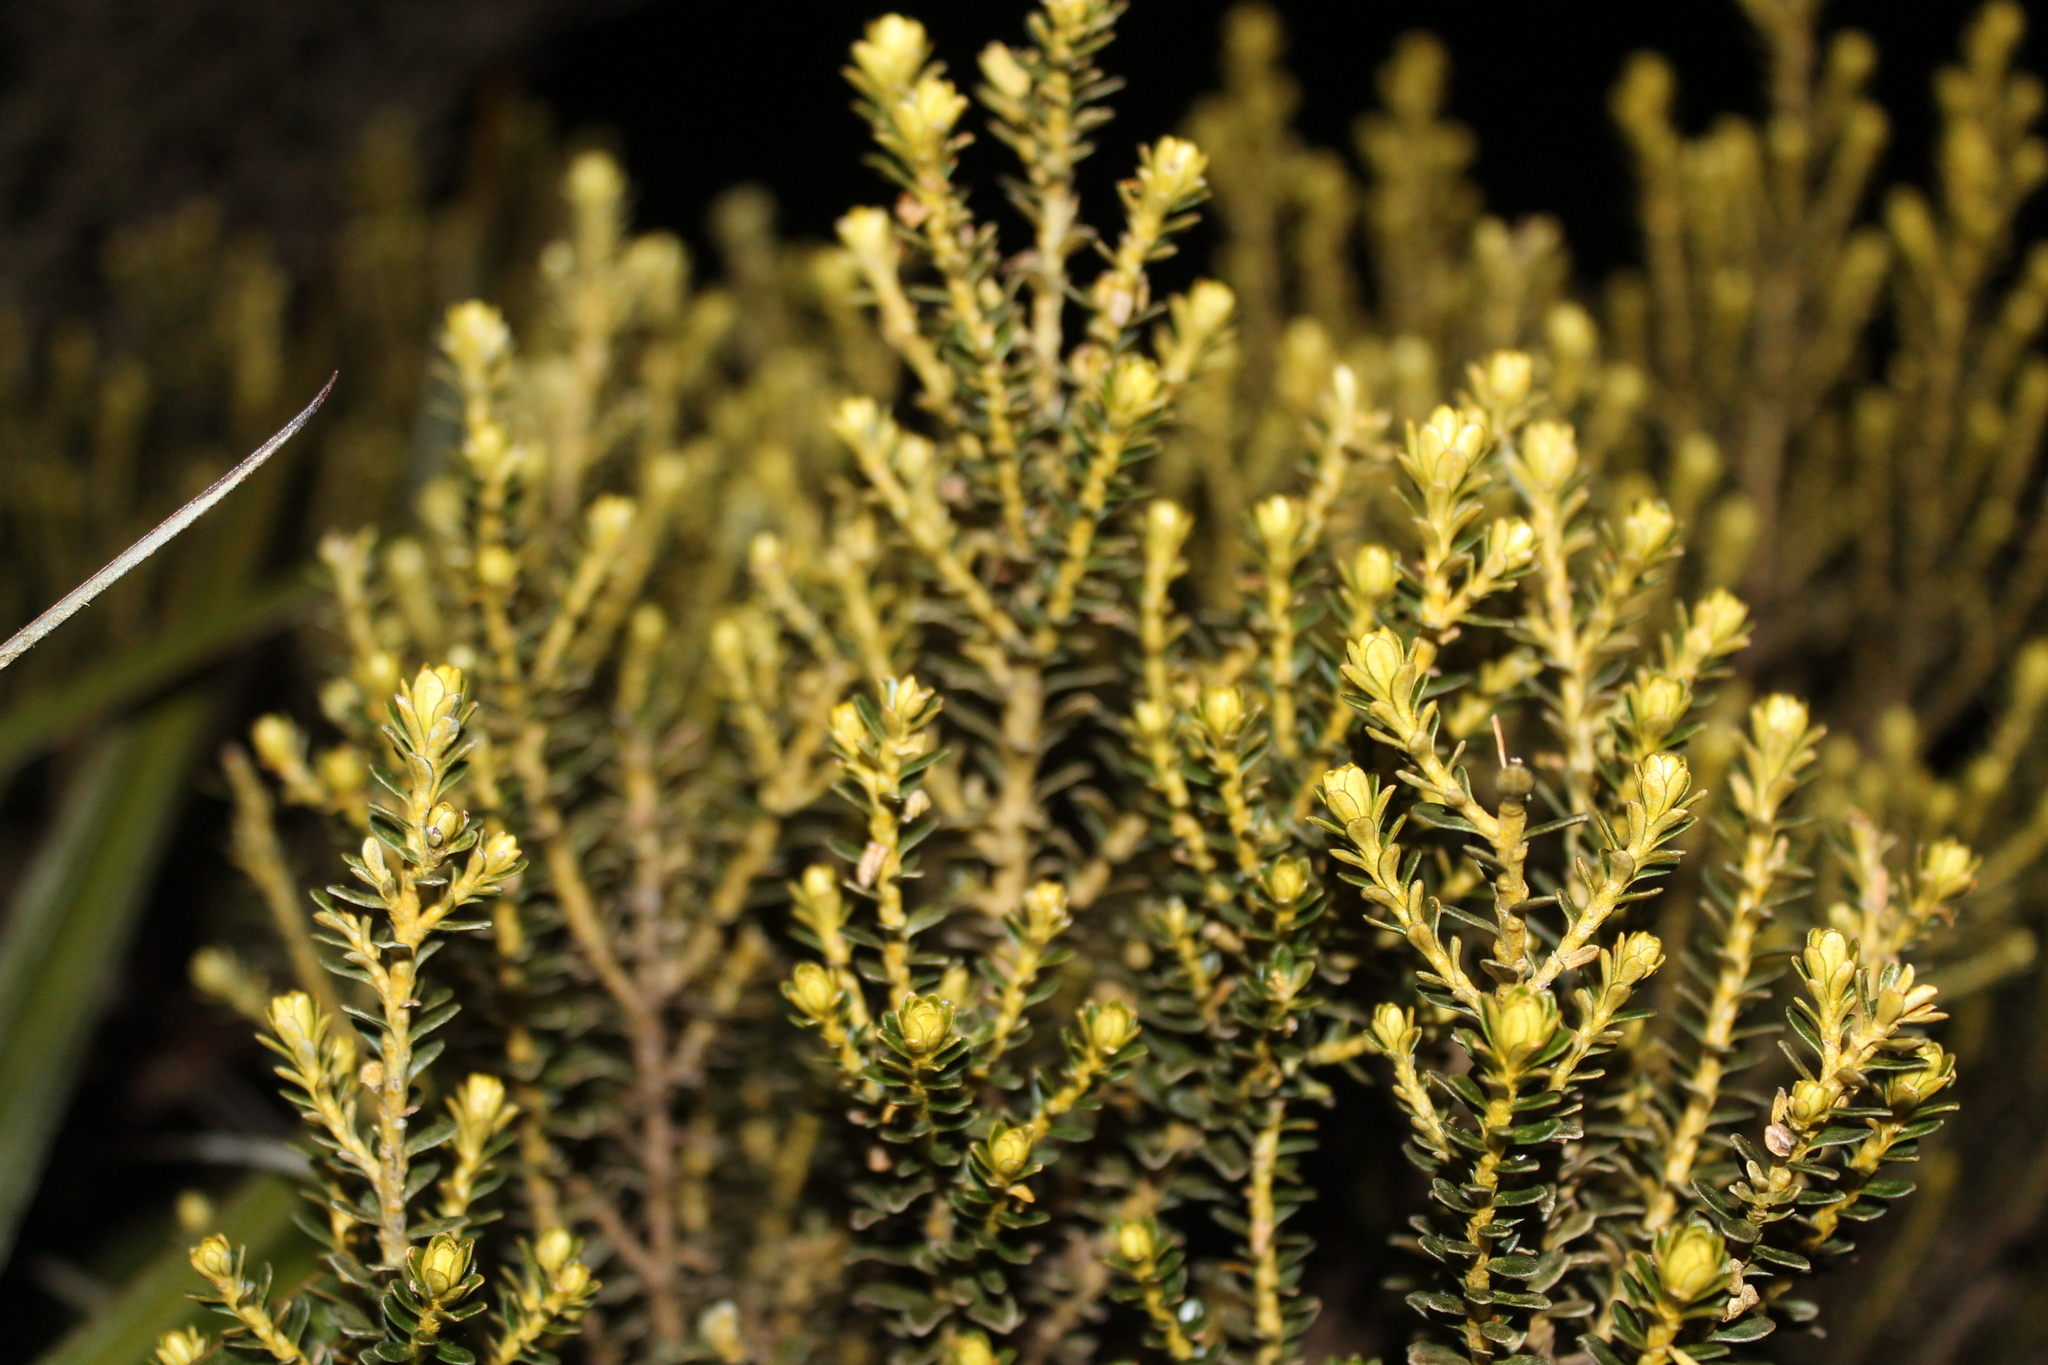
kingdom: Plantae
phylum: Tracheophyta
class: Magnoliopsida
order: Asterales
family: Asteraceae
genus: Ozothamnus
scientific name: Ozothamnus leptophyllus
